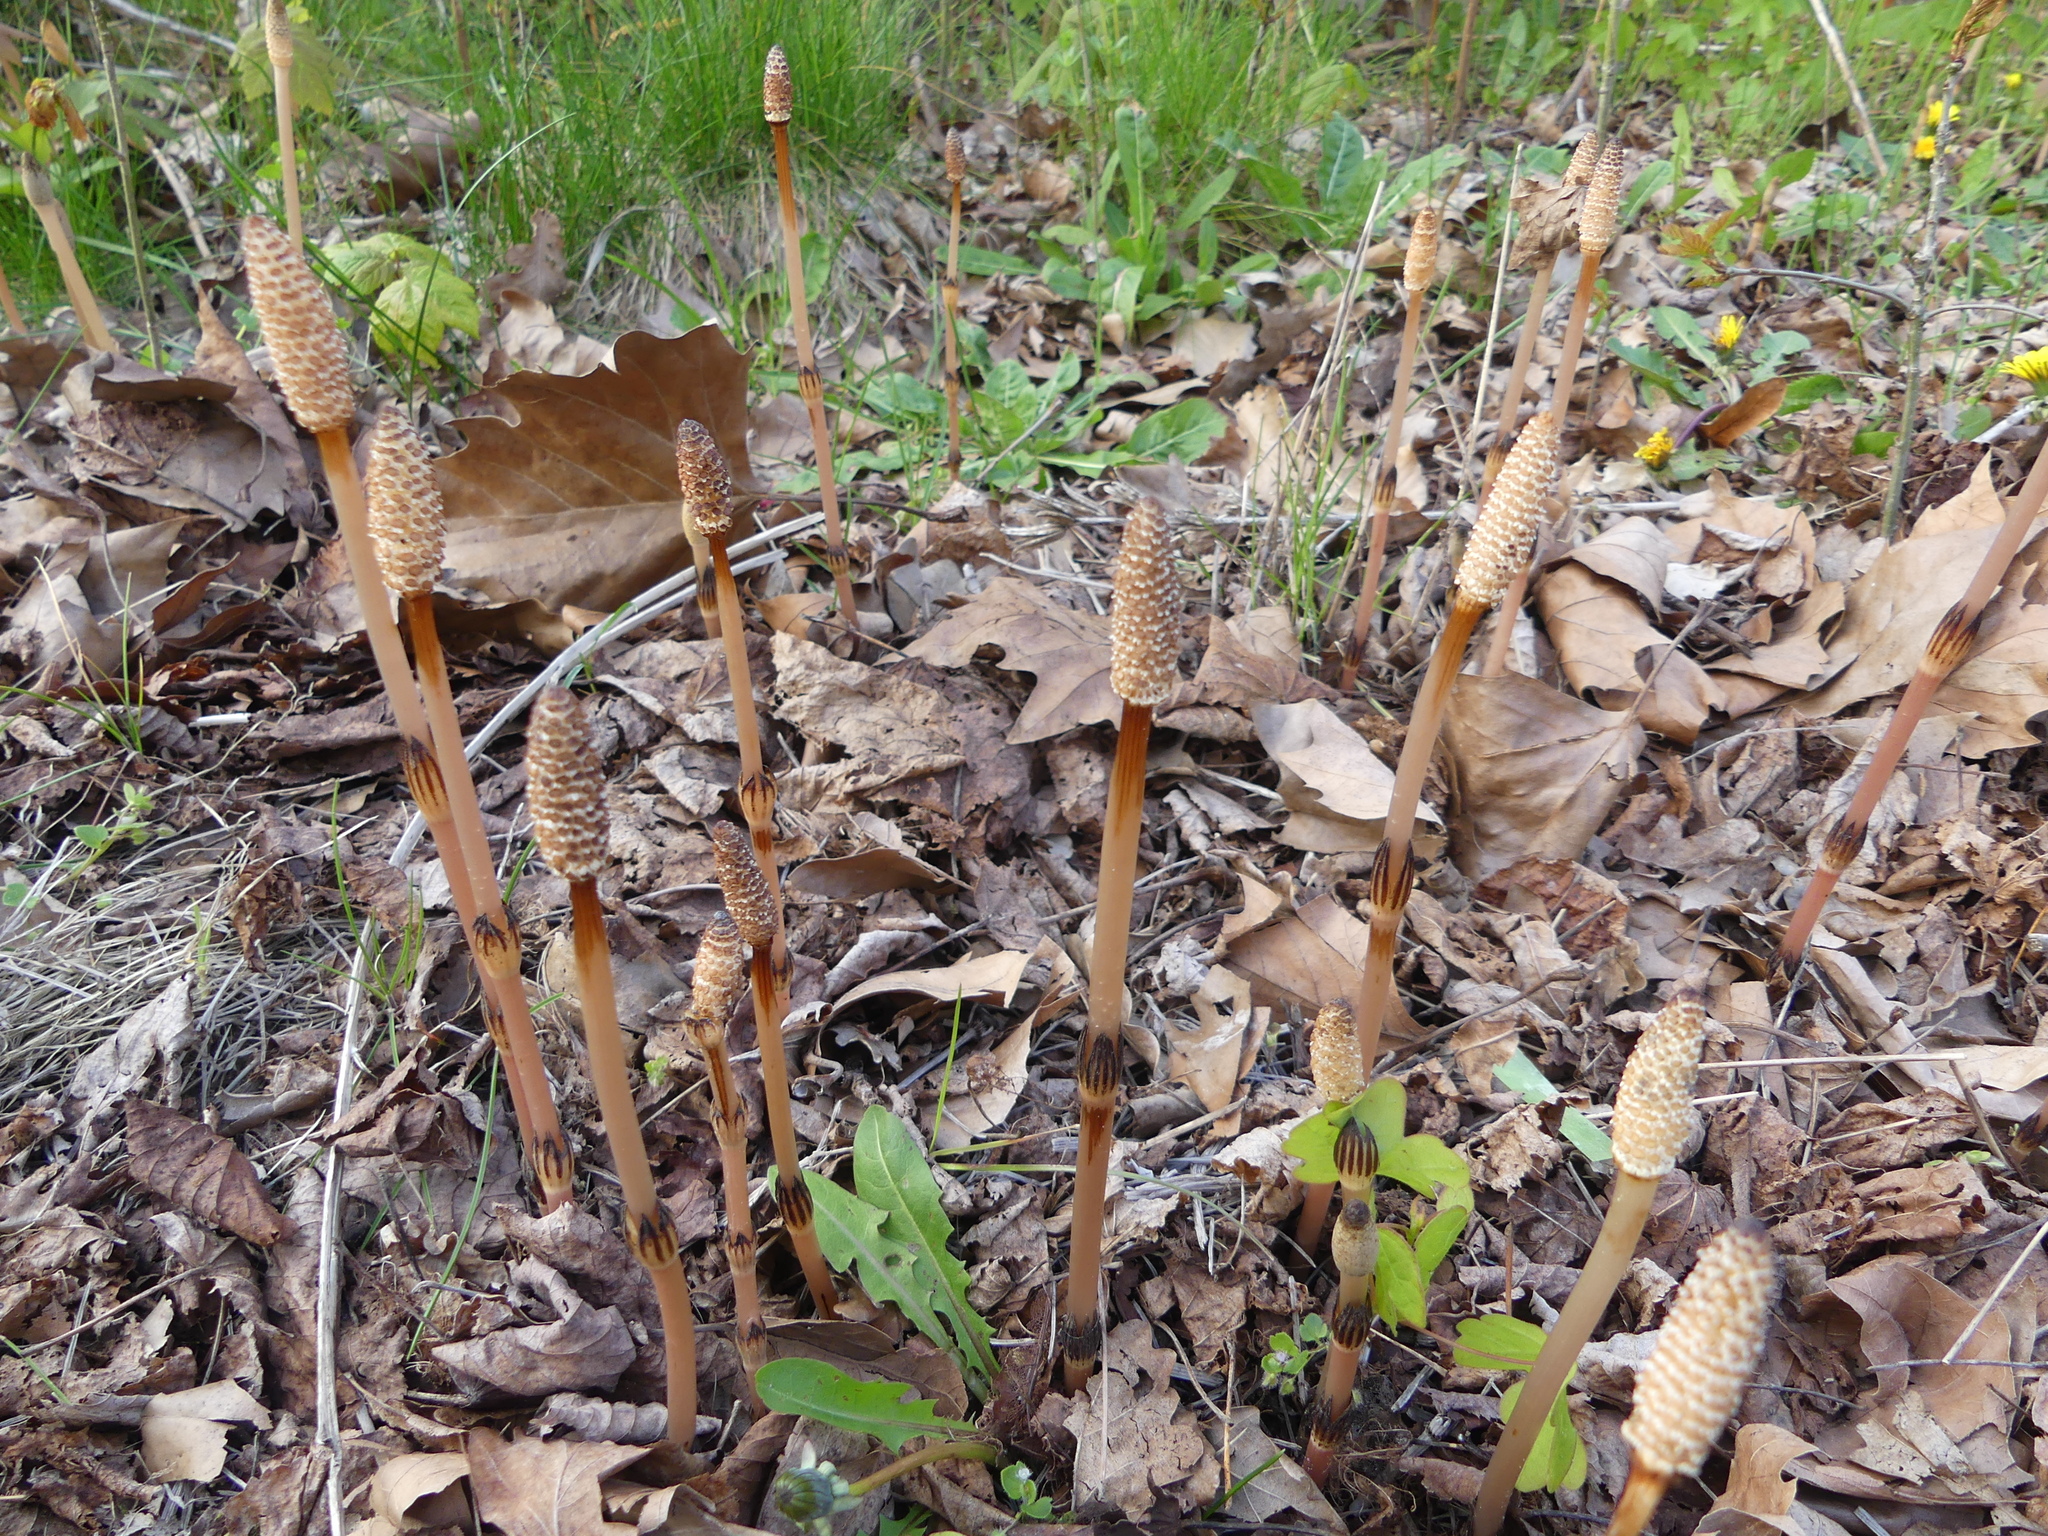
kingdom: Plantae
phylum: Tracheophyta
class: Polypodiopsida
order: Equisetales
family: Equisetaceae
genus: Equisetum
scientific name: Equisetum arvense
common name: Field horsetail
